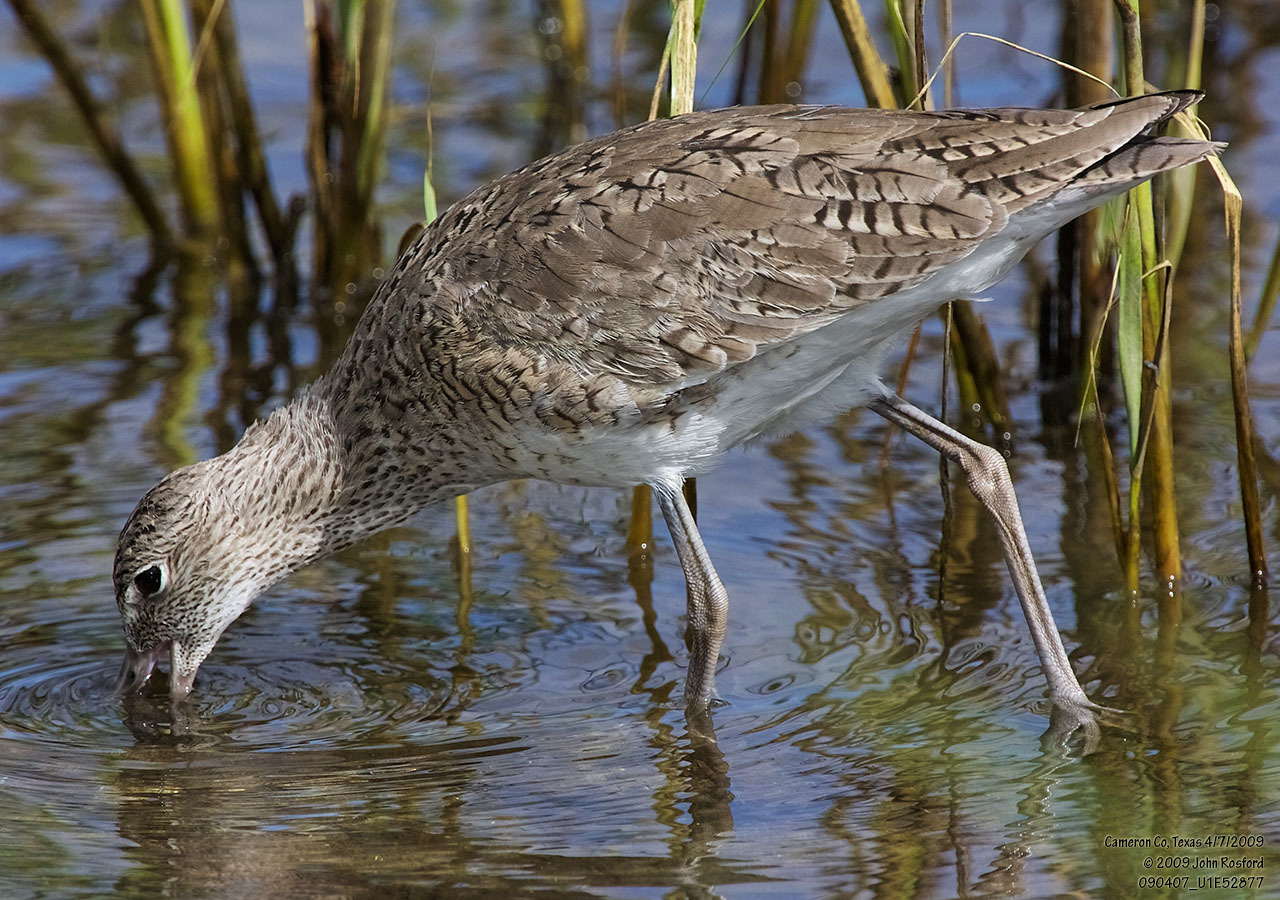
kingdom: Animalia
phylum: Chordata
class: Aves
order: Charadriiformes
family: Scolopacidae
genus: Tringa
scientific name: Tringa semipalmata
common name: Willet
